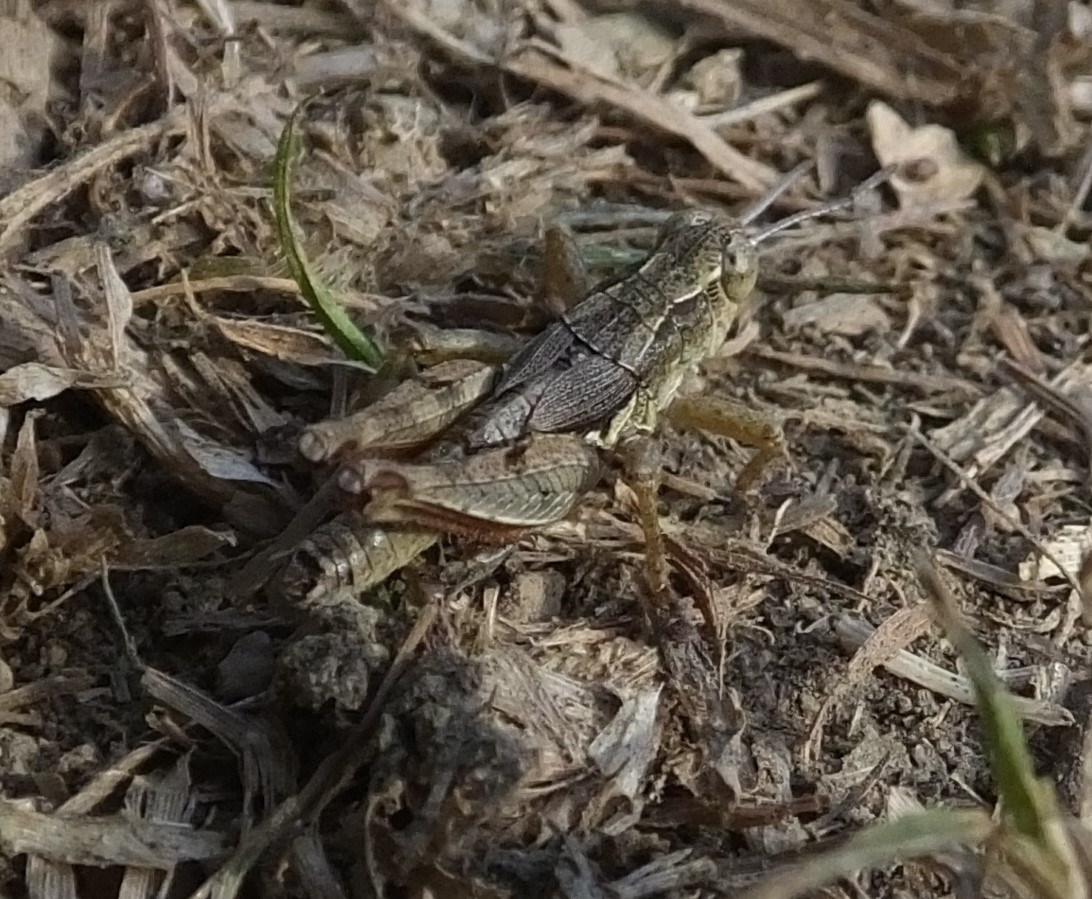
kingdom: Animalia
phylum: Arthropoda
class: Insecta
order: Orthoptera
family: Acrididae
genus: Phaulacridium
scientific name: Phaulacridium marginale
